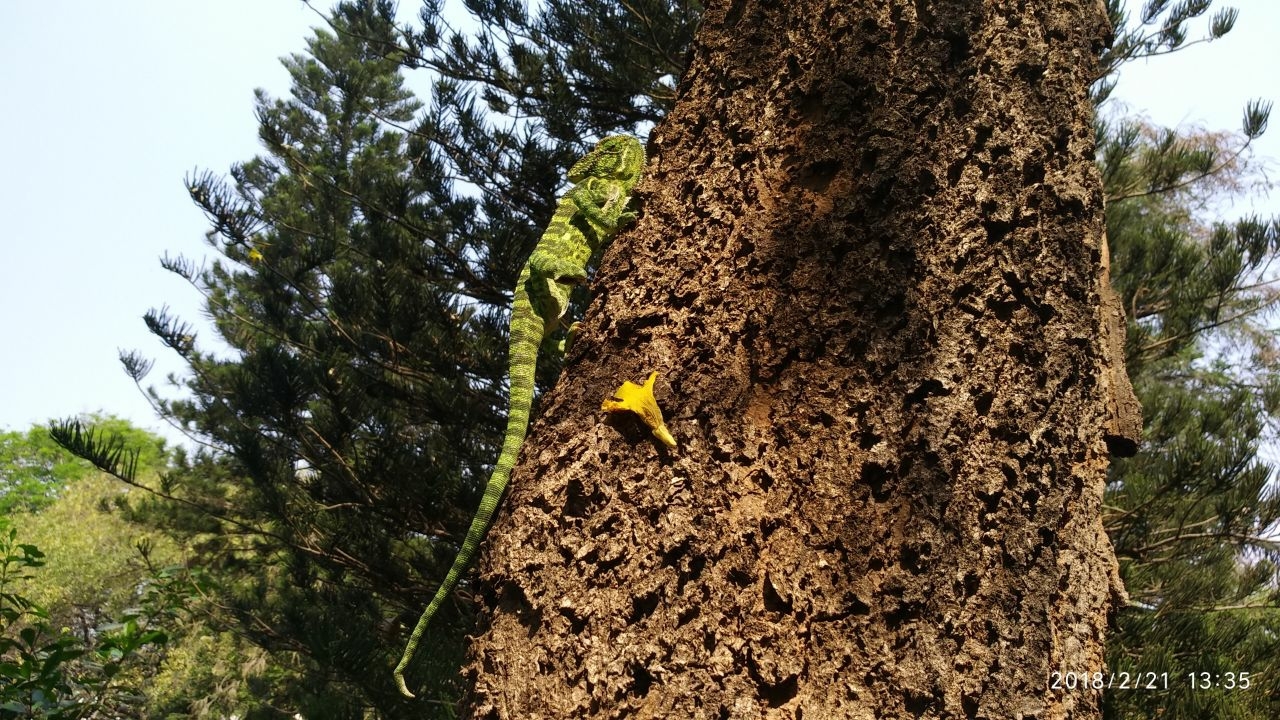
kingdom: Animalia
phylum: Chordata
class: Squamata
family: Chamaeleonidae
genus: Chamaeleo
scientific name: Chamaeleo zeylanicus
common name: Indian chameleon
